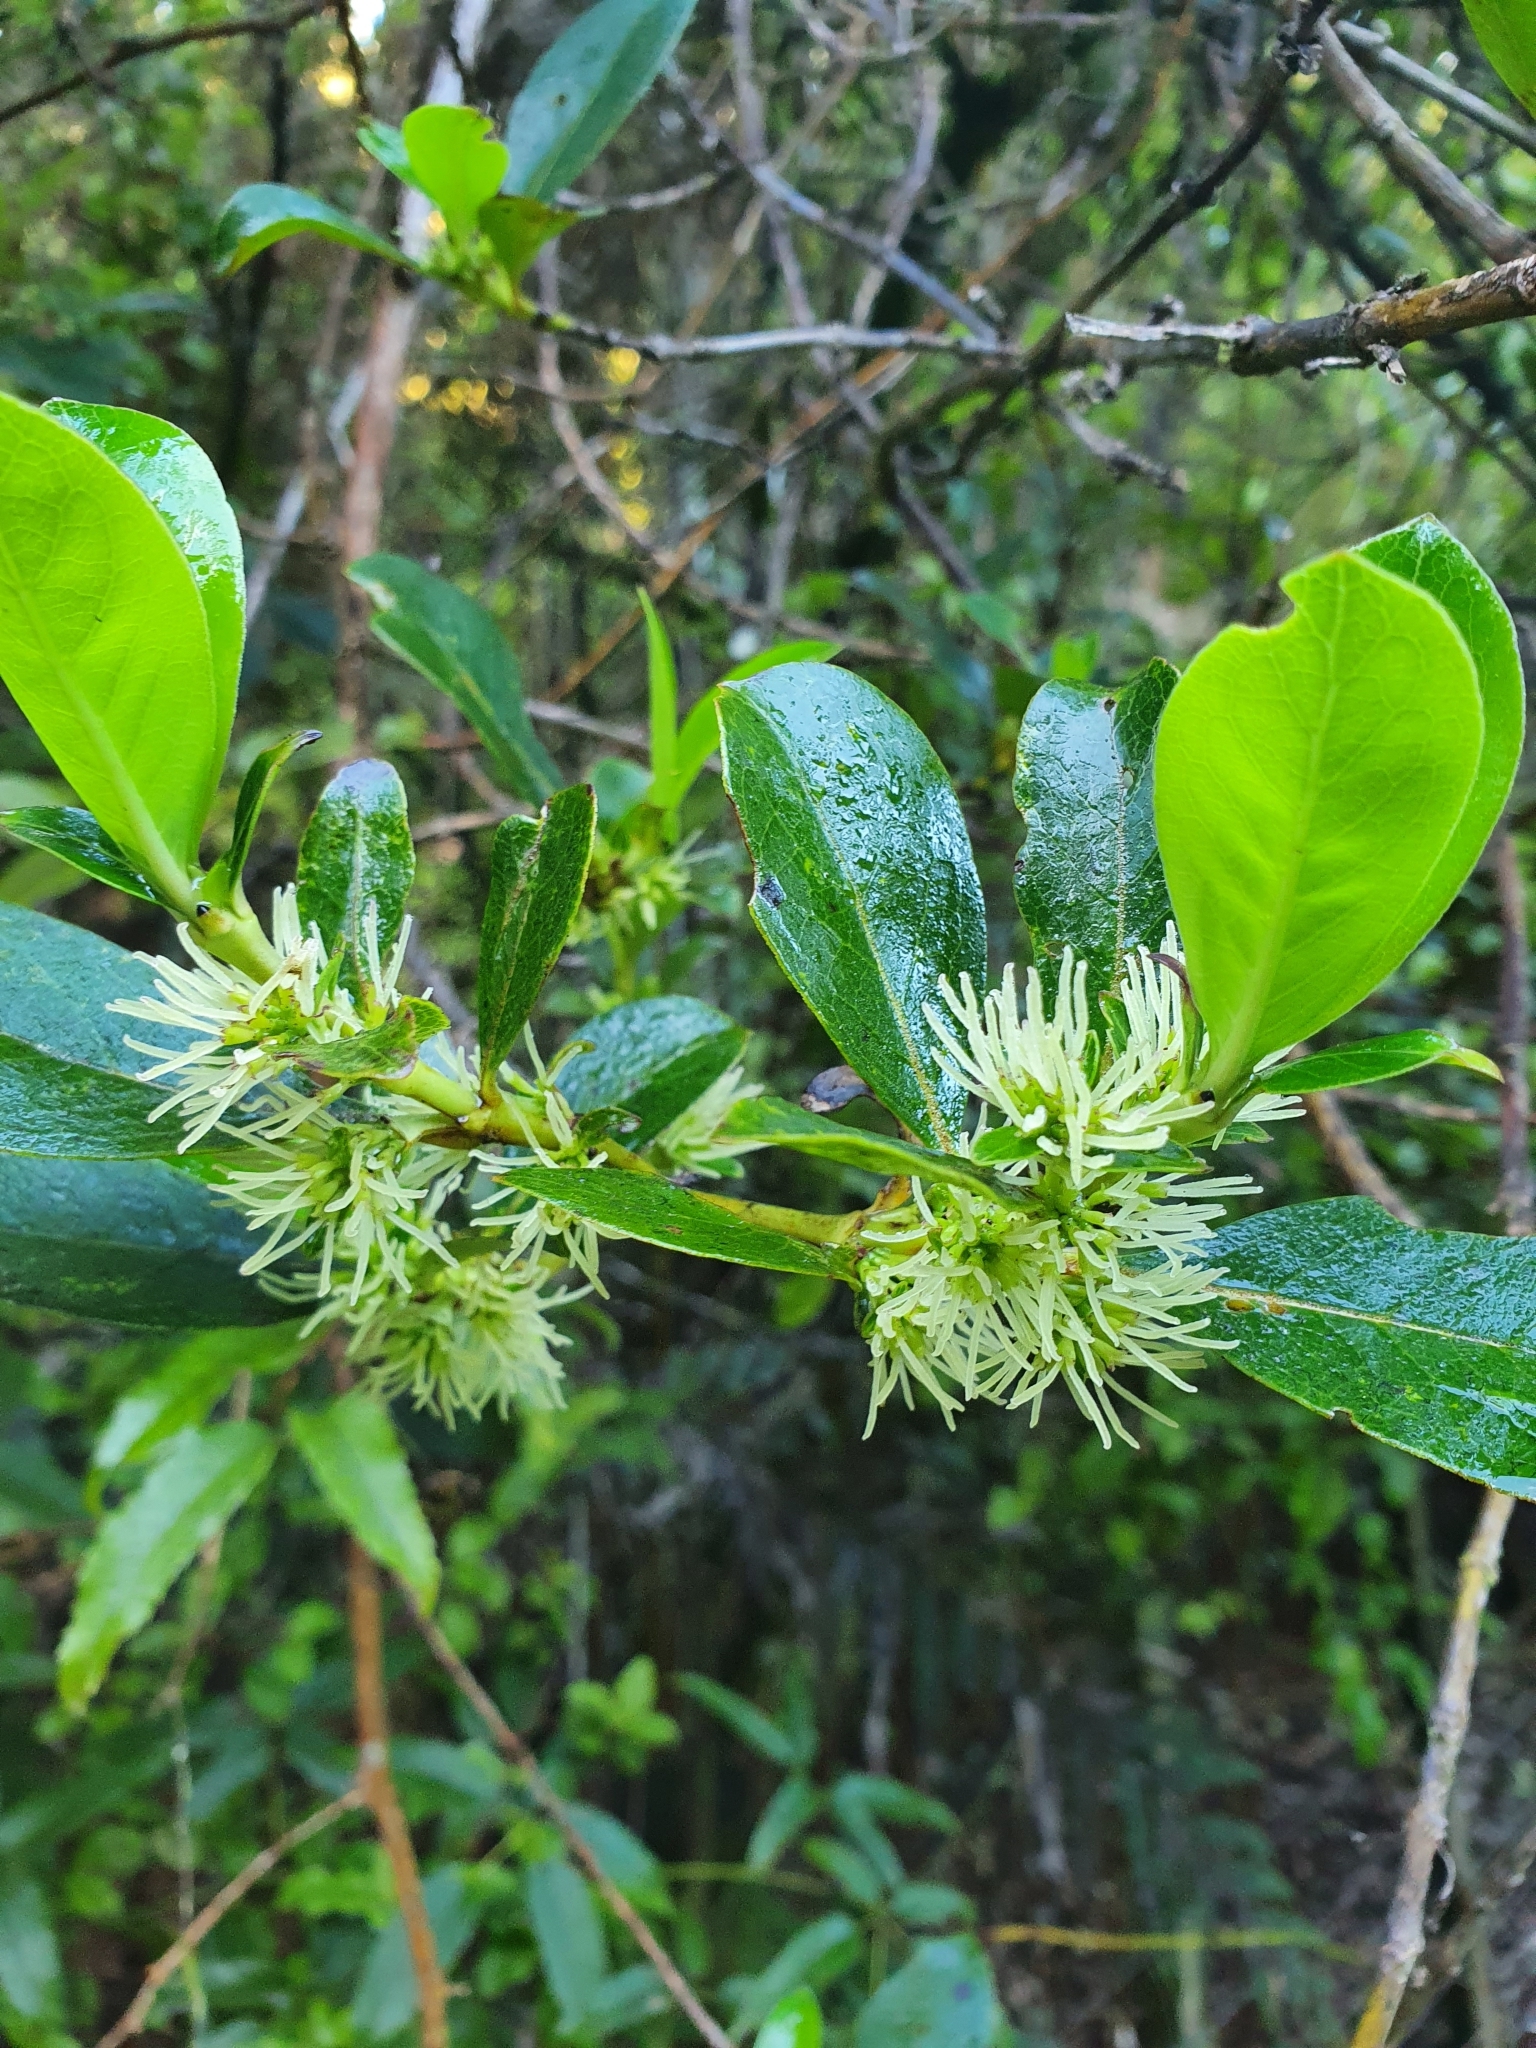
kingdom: Plantae
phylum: Tracheophyta
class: Magnoliopsida
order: Gentianales
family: Rubiaceae
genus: Coprosma
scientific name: Coprosma robusta
